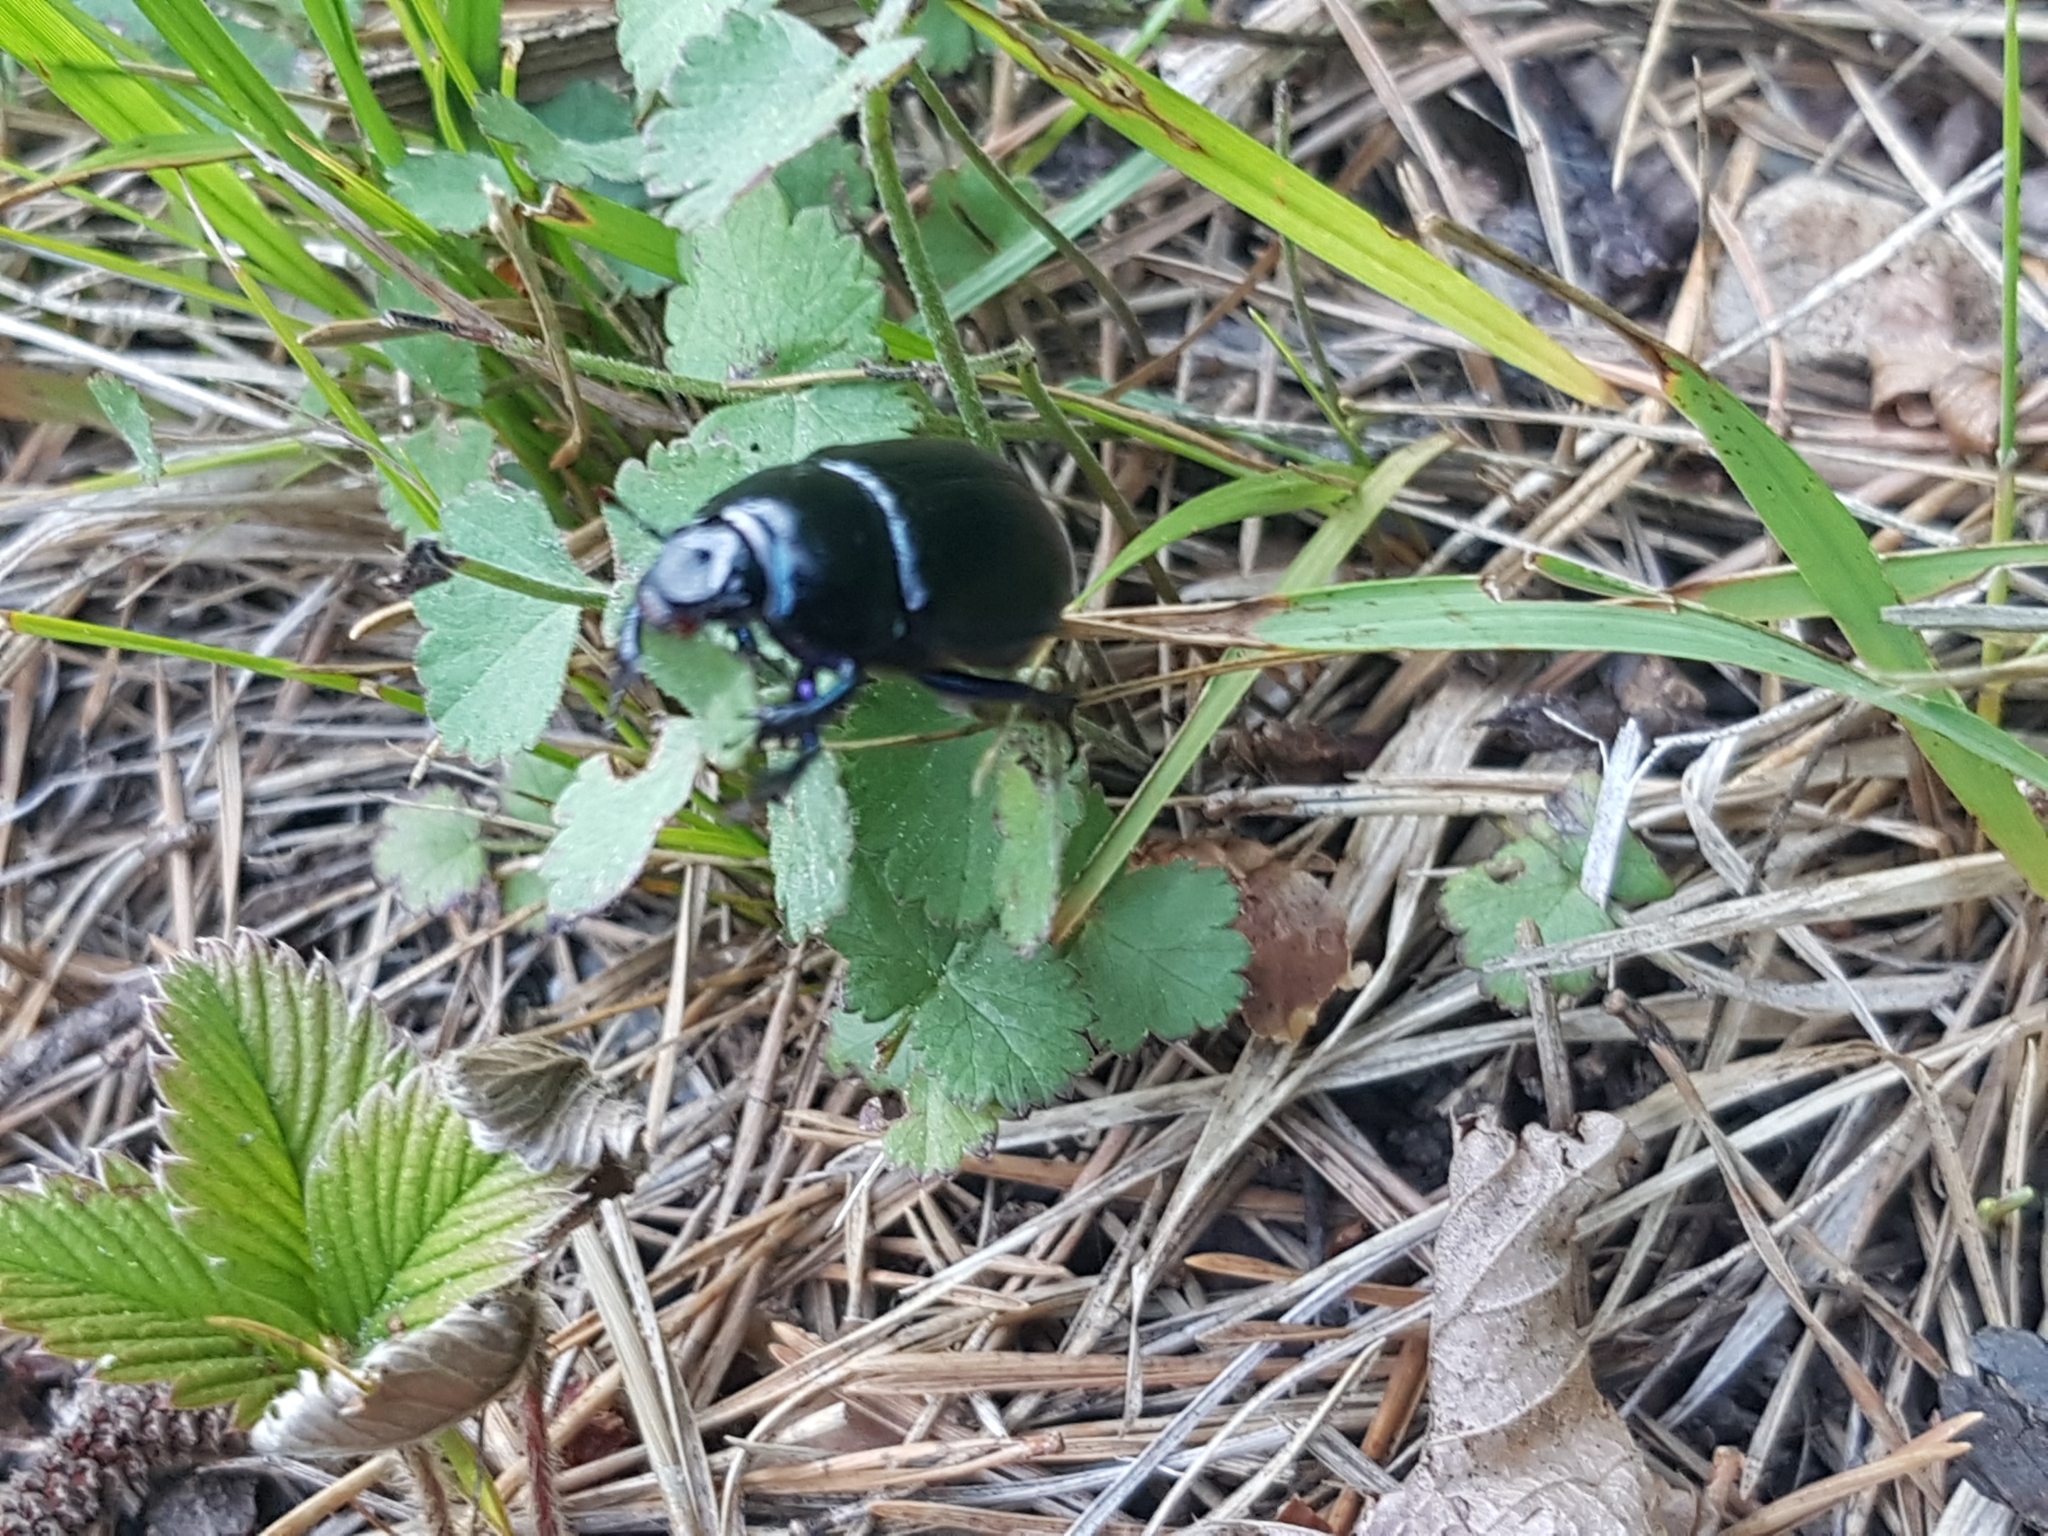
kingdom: Animalia
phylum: Arthropoda
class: Insecta
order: Coleoptera
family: Geotrupidae
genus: Anoplotrupes
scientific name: Anoplotrupes stercorosus
